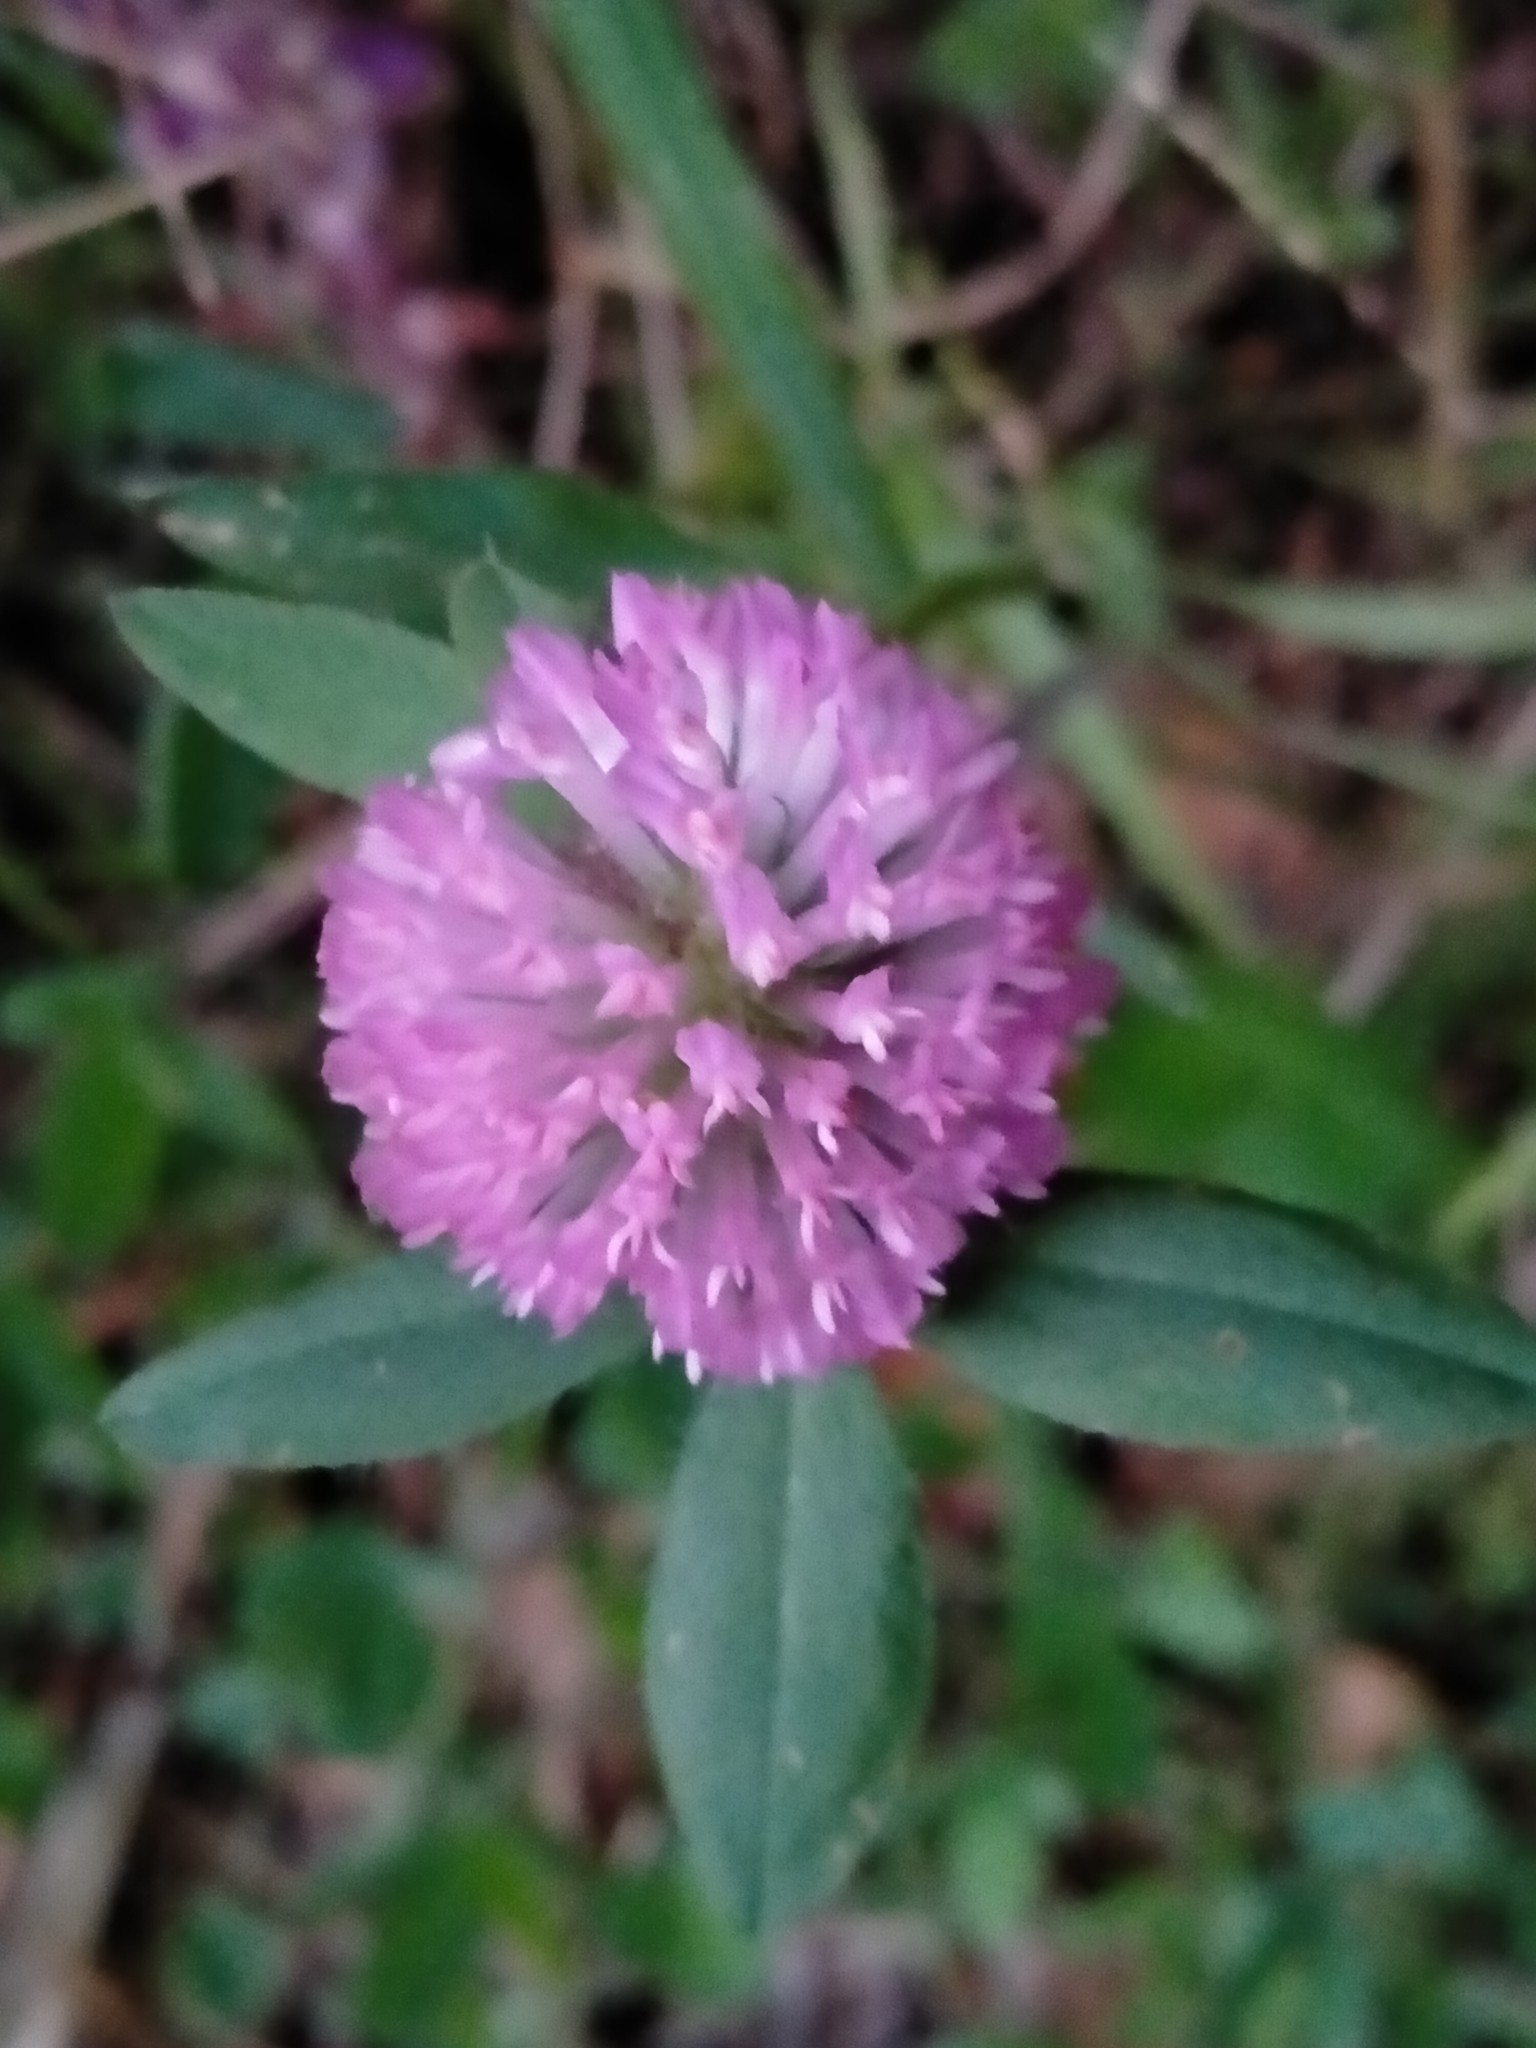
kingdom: Plantae
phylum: Tracheophyta
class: Magnoliopsida
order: Fabales
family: Fabaceae
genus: Trifolium
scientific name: Trifolium pratense
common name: Red clover
